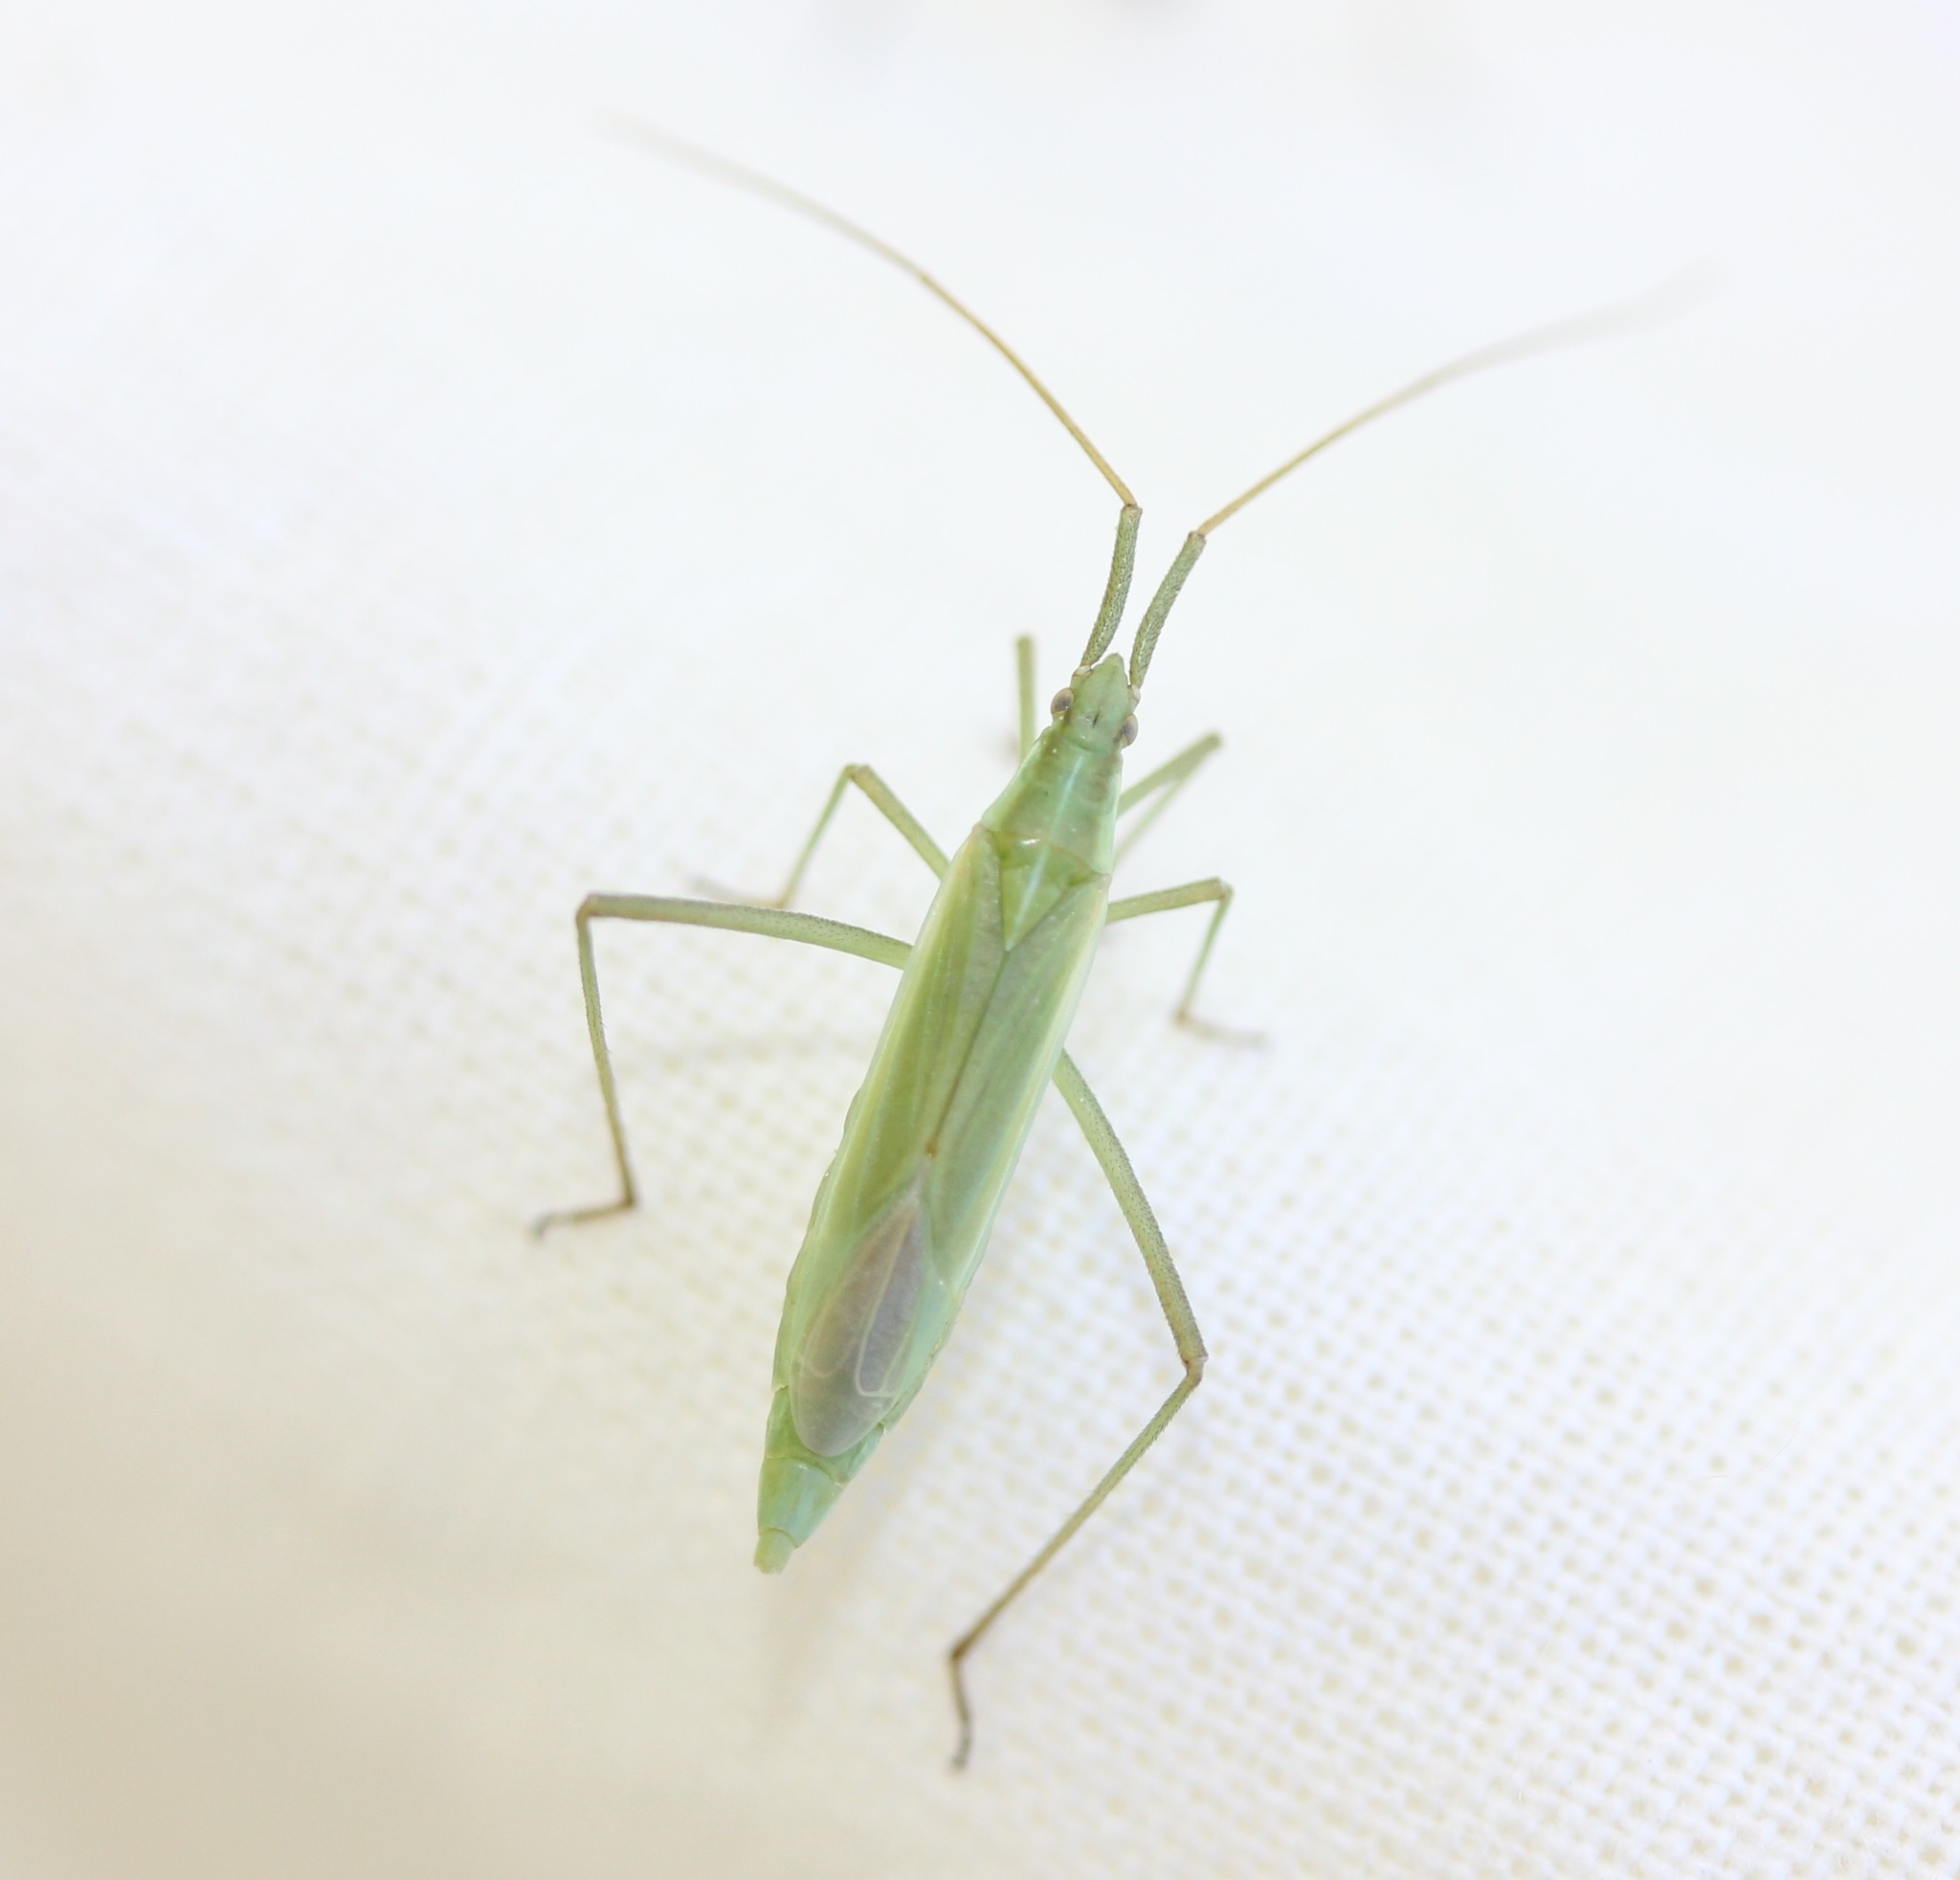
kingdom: Animalia
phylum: Arthropoda
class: Insecta
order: Hemiptera
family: Miridae
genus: Megaloceroea
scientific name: Megaloceroea recticornis
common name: Plant bug
